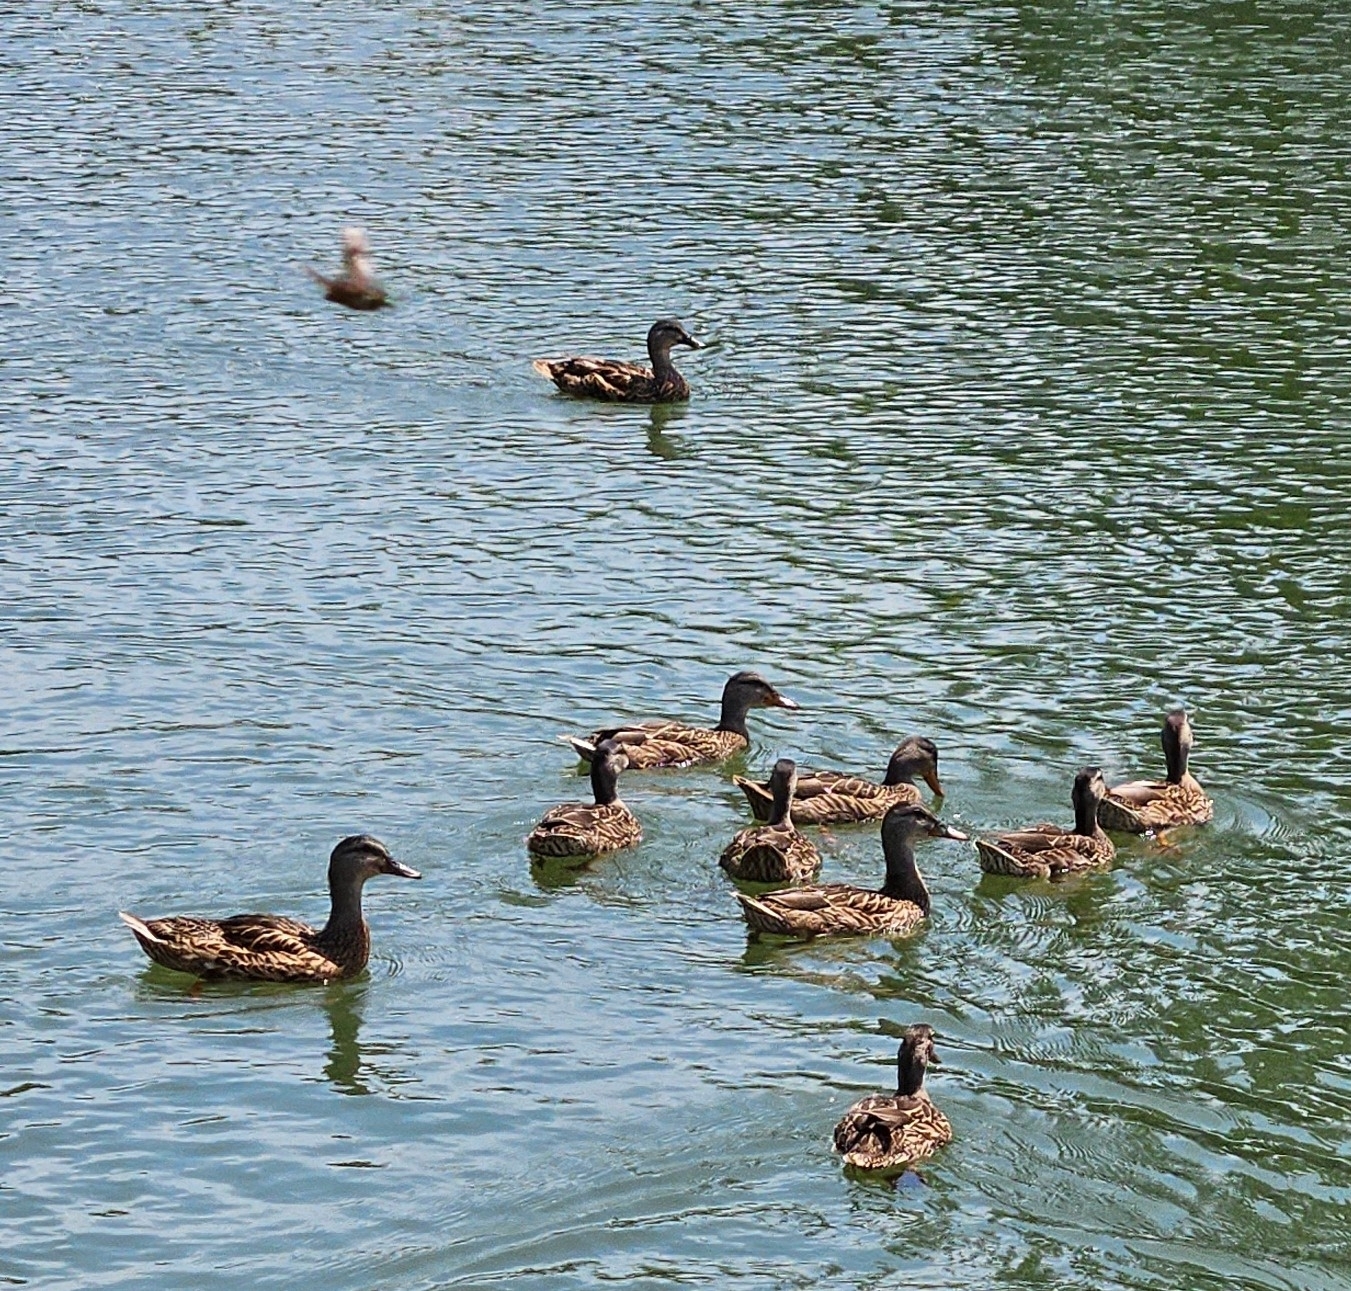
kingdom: Animalia
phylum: Chordata
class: Aves
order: Anseriformes
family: Anatidae
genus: Anas
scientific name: Anas platyrhynchos
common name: Mallard
